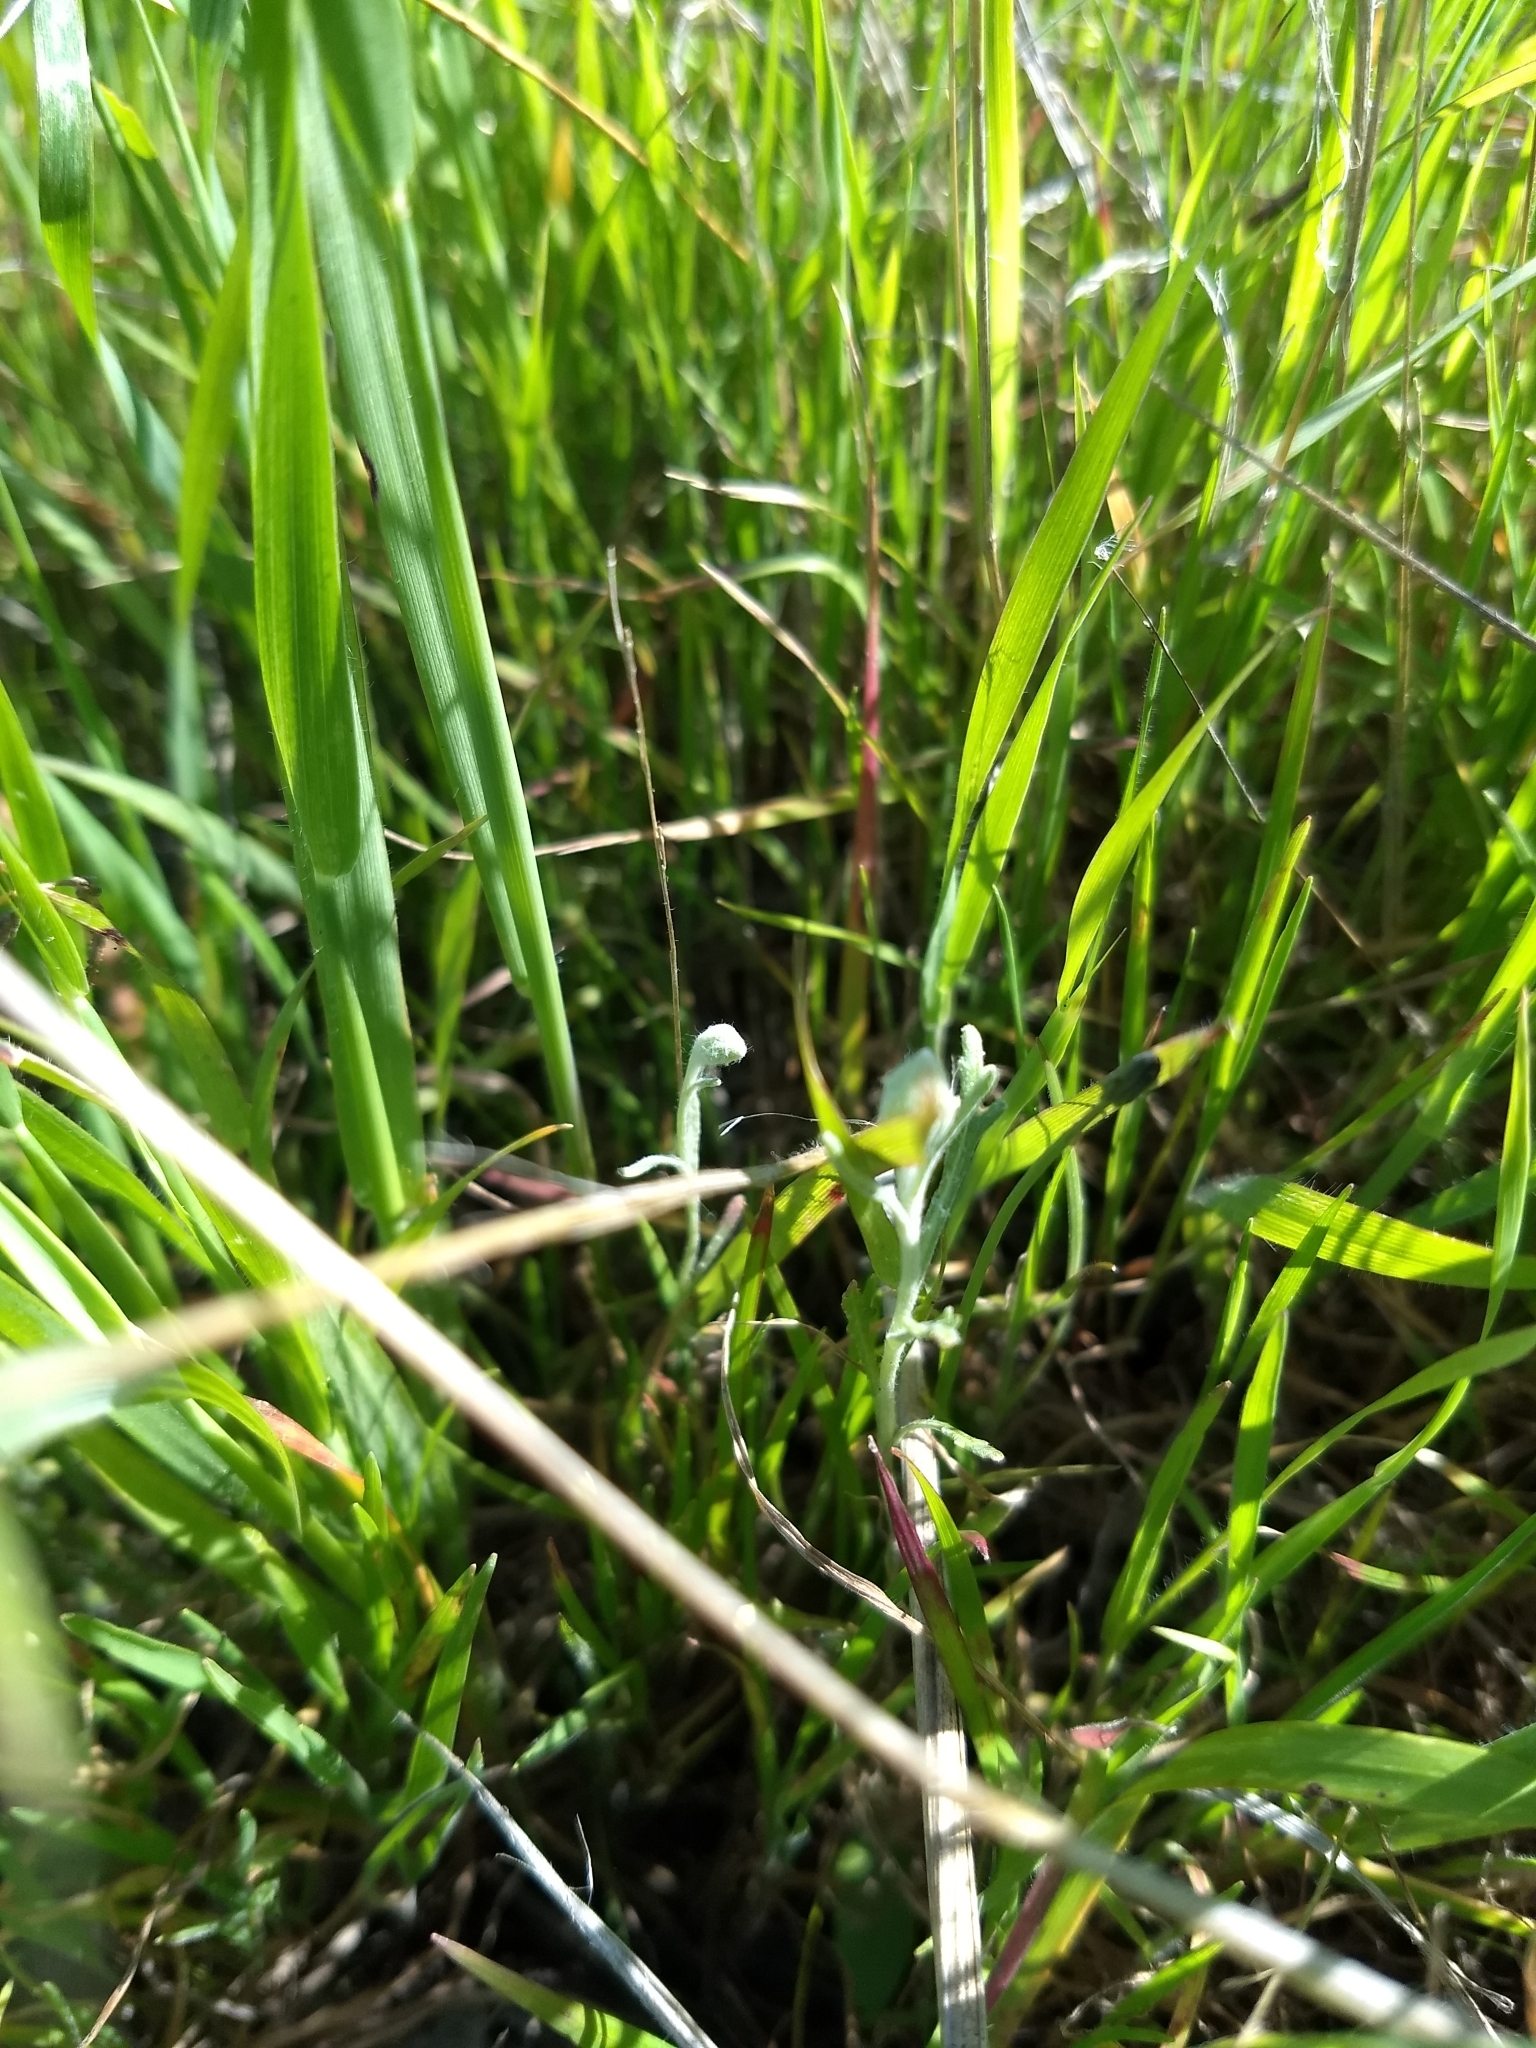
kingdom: Plantae
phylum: Tracheophyta
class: Magnoliopsida
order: Asterales
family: Asteraceae
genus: Pseudobahia
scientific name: Pseudobahia peirsonii
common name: Tulare psudobahia
